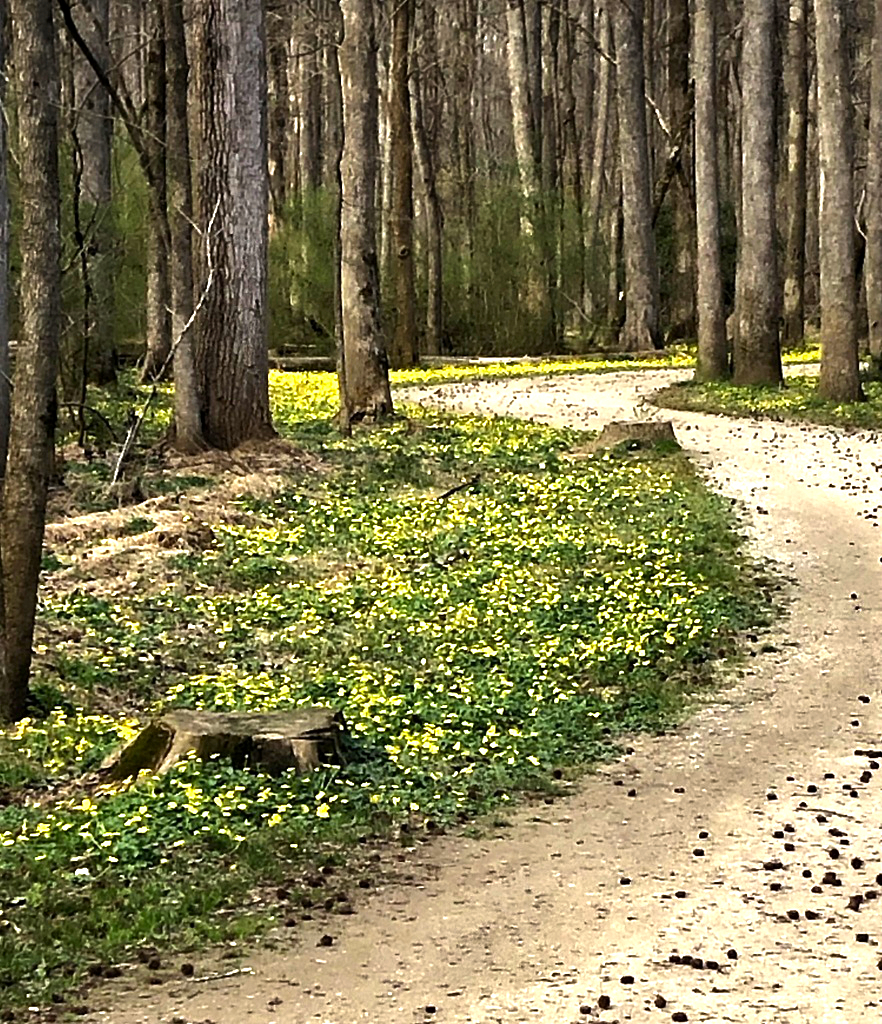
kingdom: Plantae
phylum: Tracheophyta
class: Magnoliopsida
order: Ranunculales
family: Ranunculaceae
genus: Ficaria
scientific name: Ficaria verna
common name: Lesser celandine
